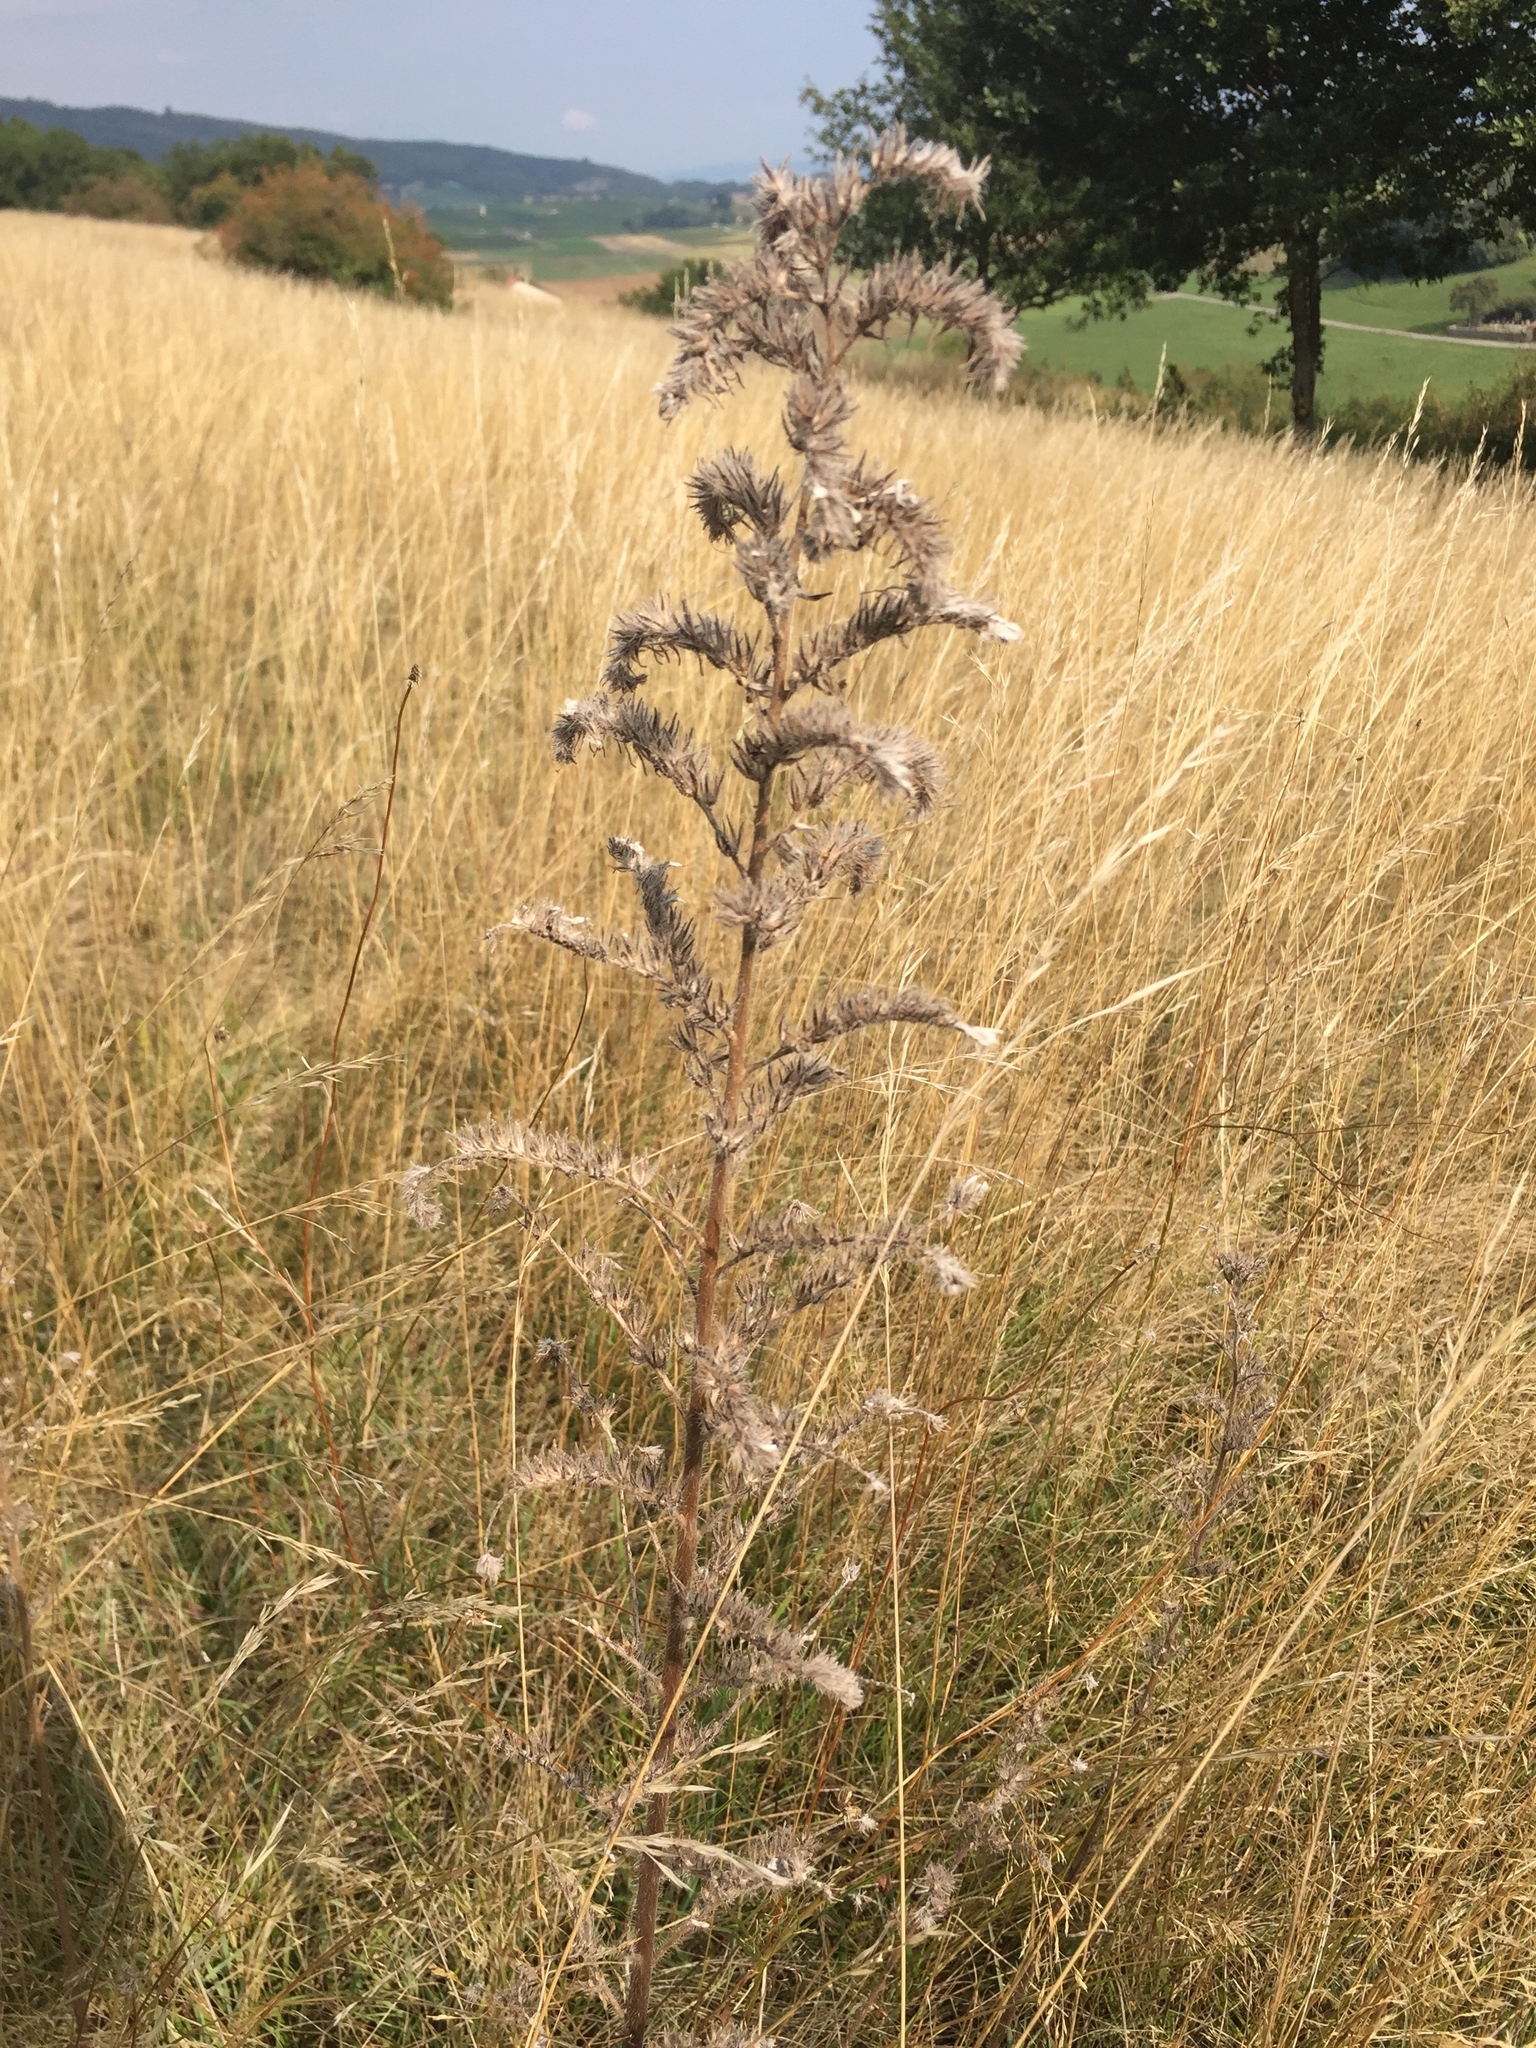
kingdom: Plantae
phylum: Tracheophyta
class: Magnoliopsida
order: Boraginales
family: Boraginaceae
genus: Echium
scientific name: Echium vulgare
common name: Common viper's bugloss
